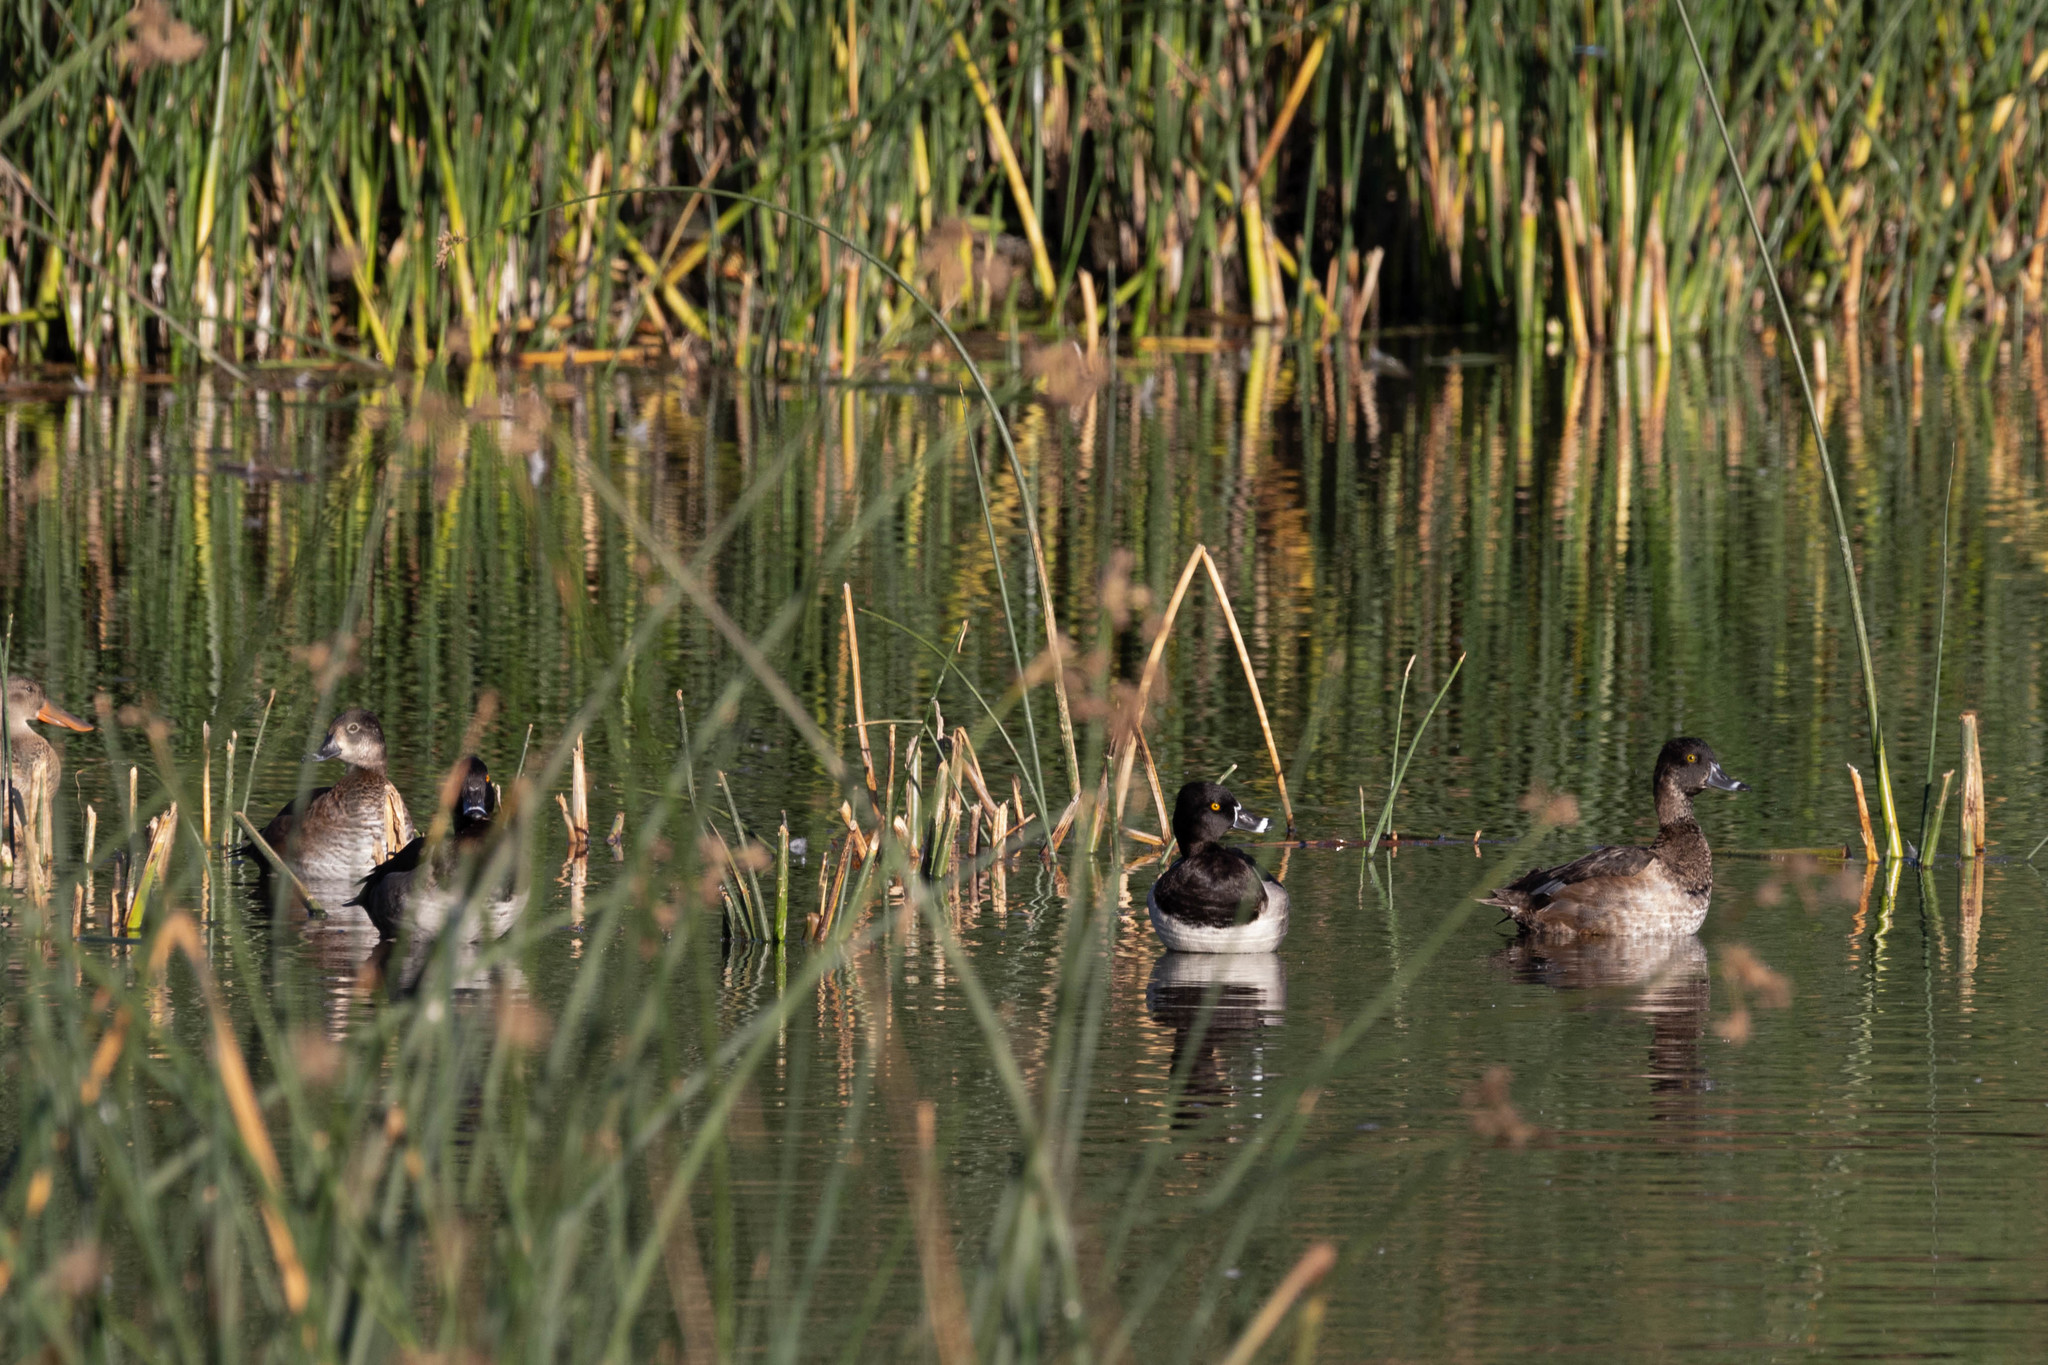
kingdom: Animalia
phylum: Chordata
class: Aves
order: Anseriformes
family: Anatidae
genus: Aythya
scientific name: Aythya collaris
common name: Ring-necked duck
